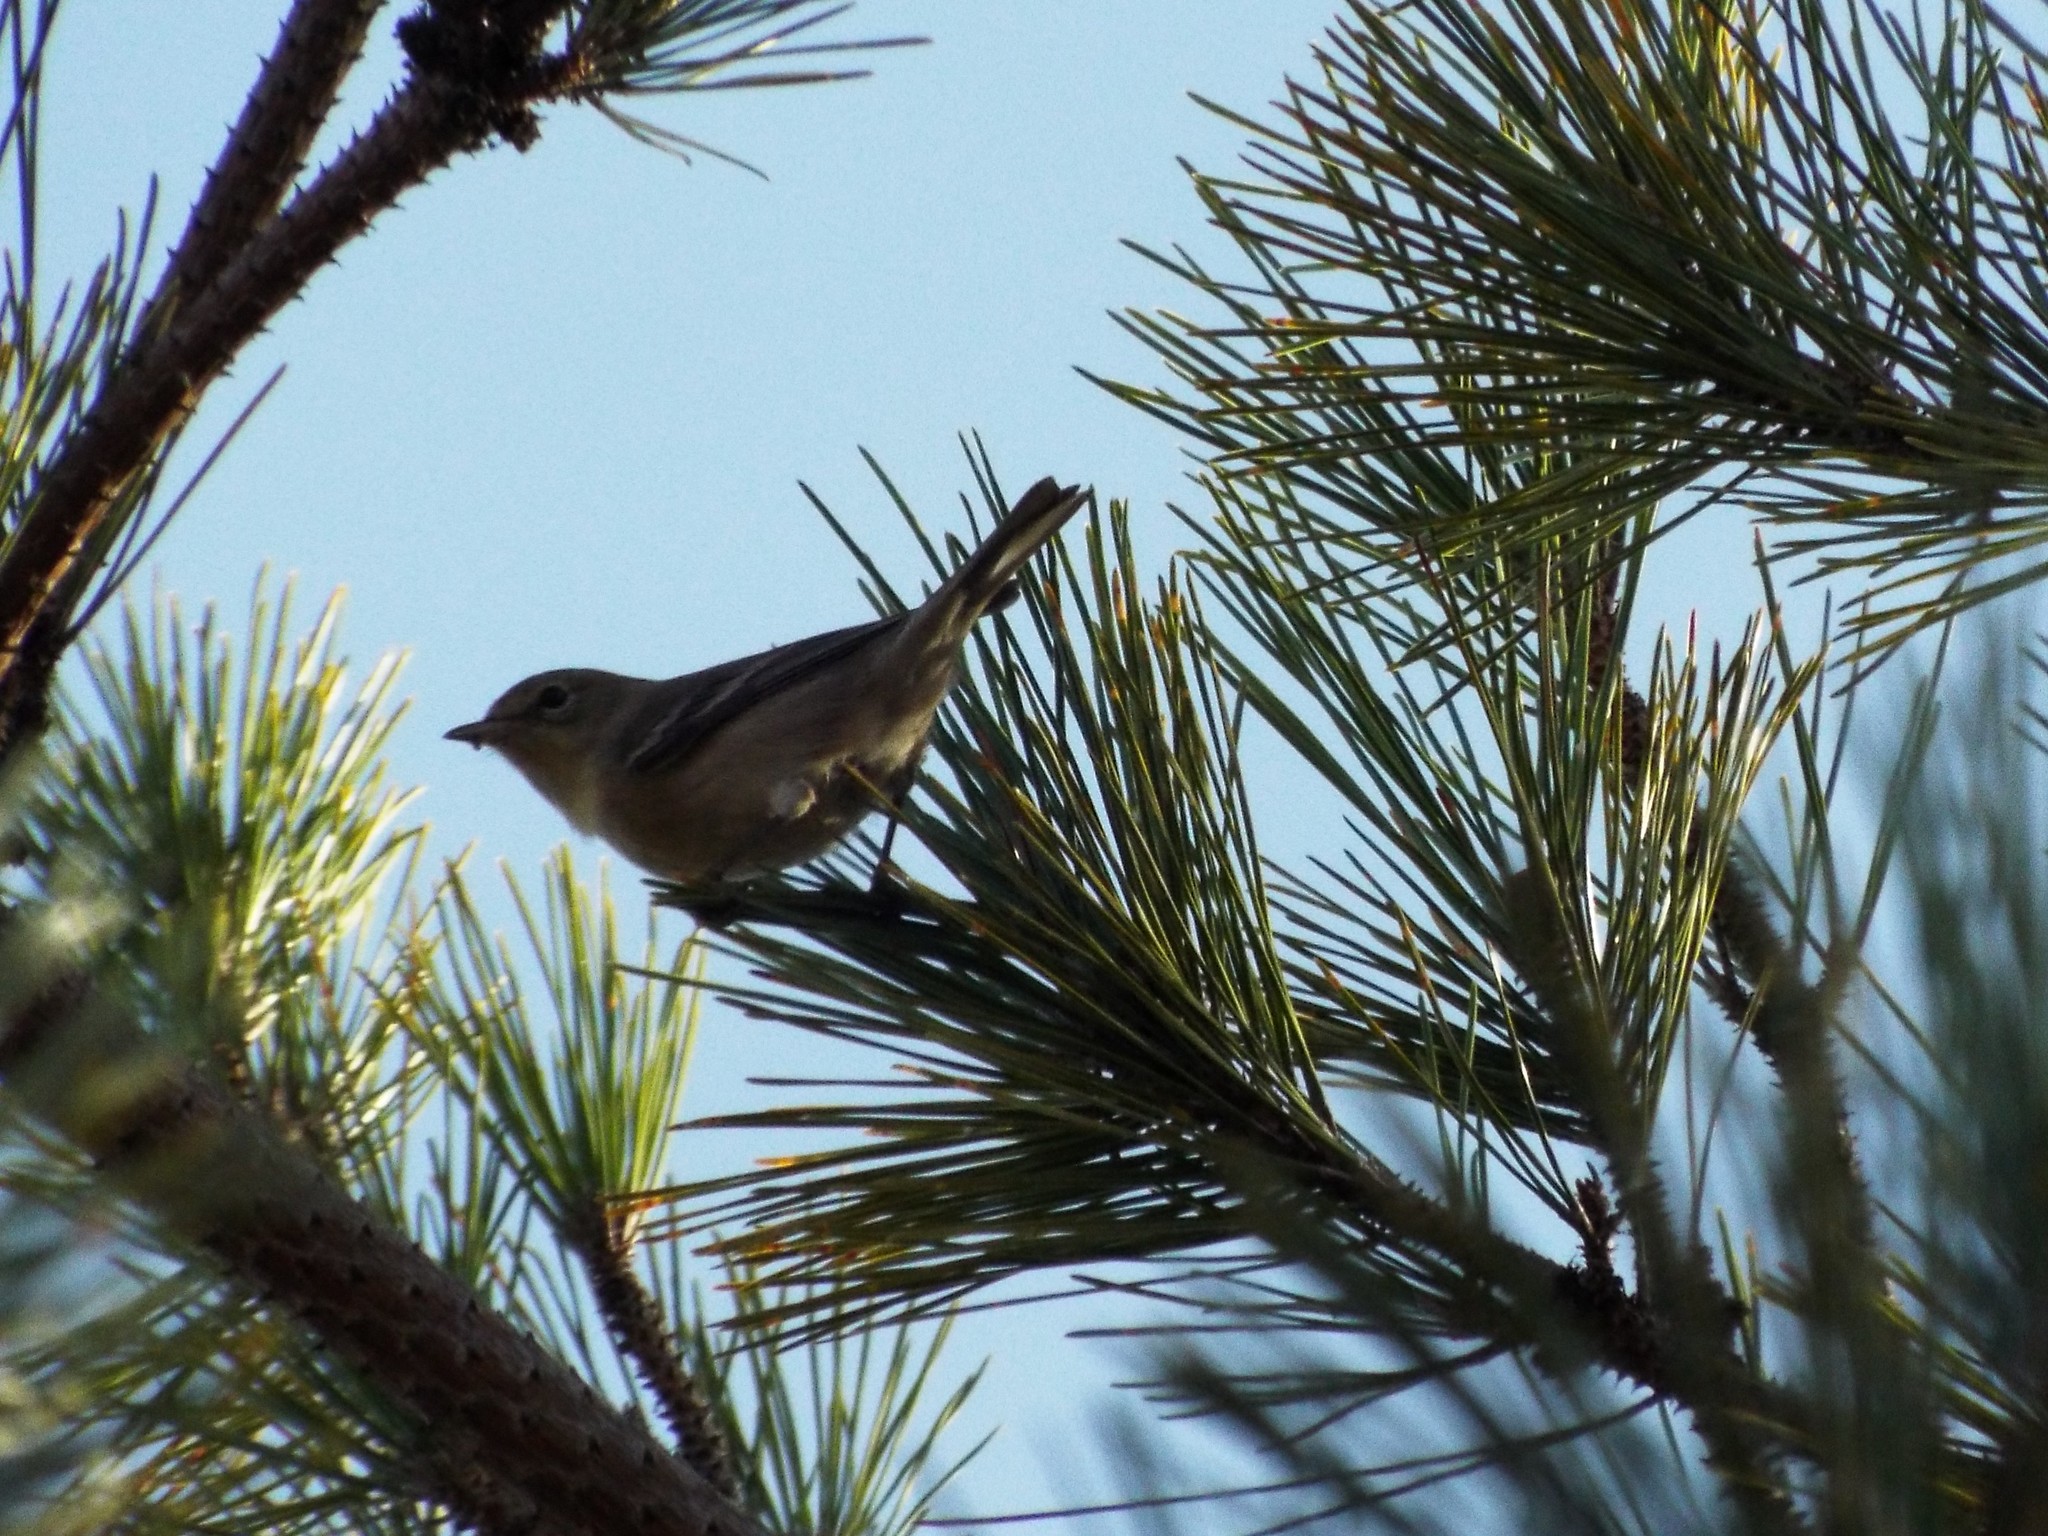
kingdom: Animalia
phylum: Chordata
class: Aves
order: Passeriformes
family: Parulidae
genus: Setophaga
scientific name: Setophaga pinus
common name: Pine warbler
